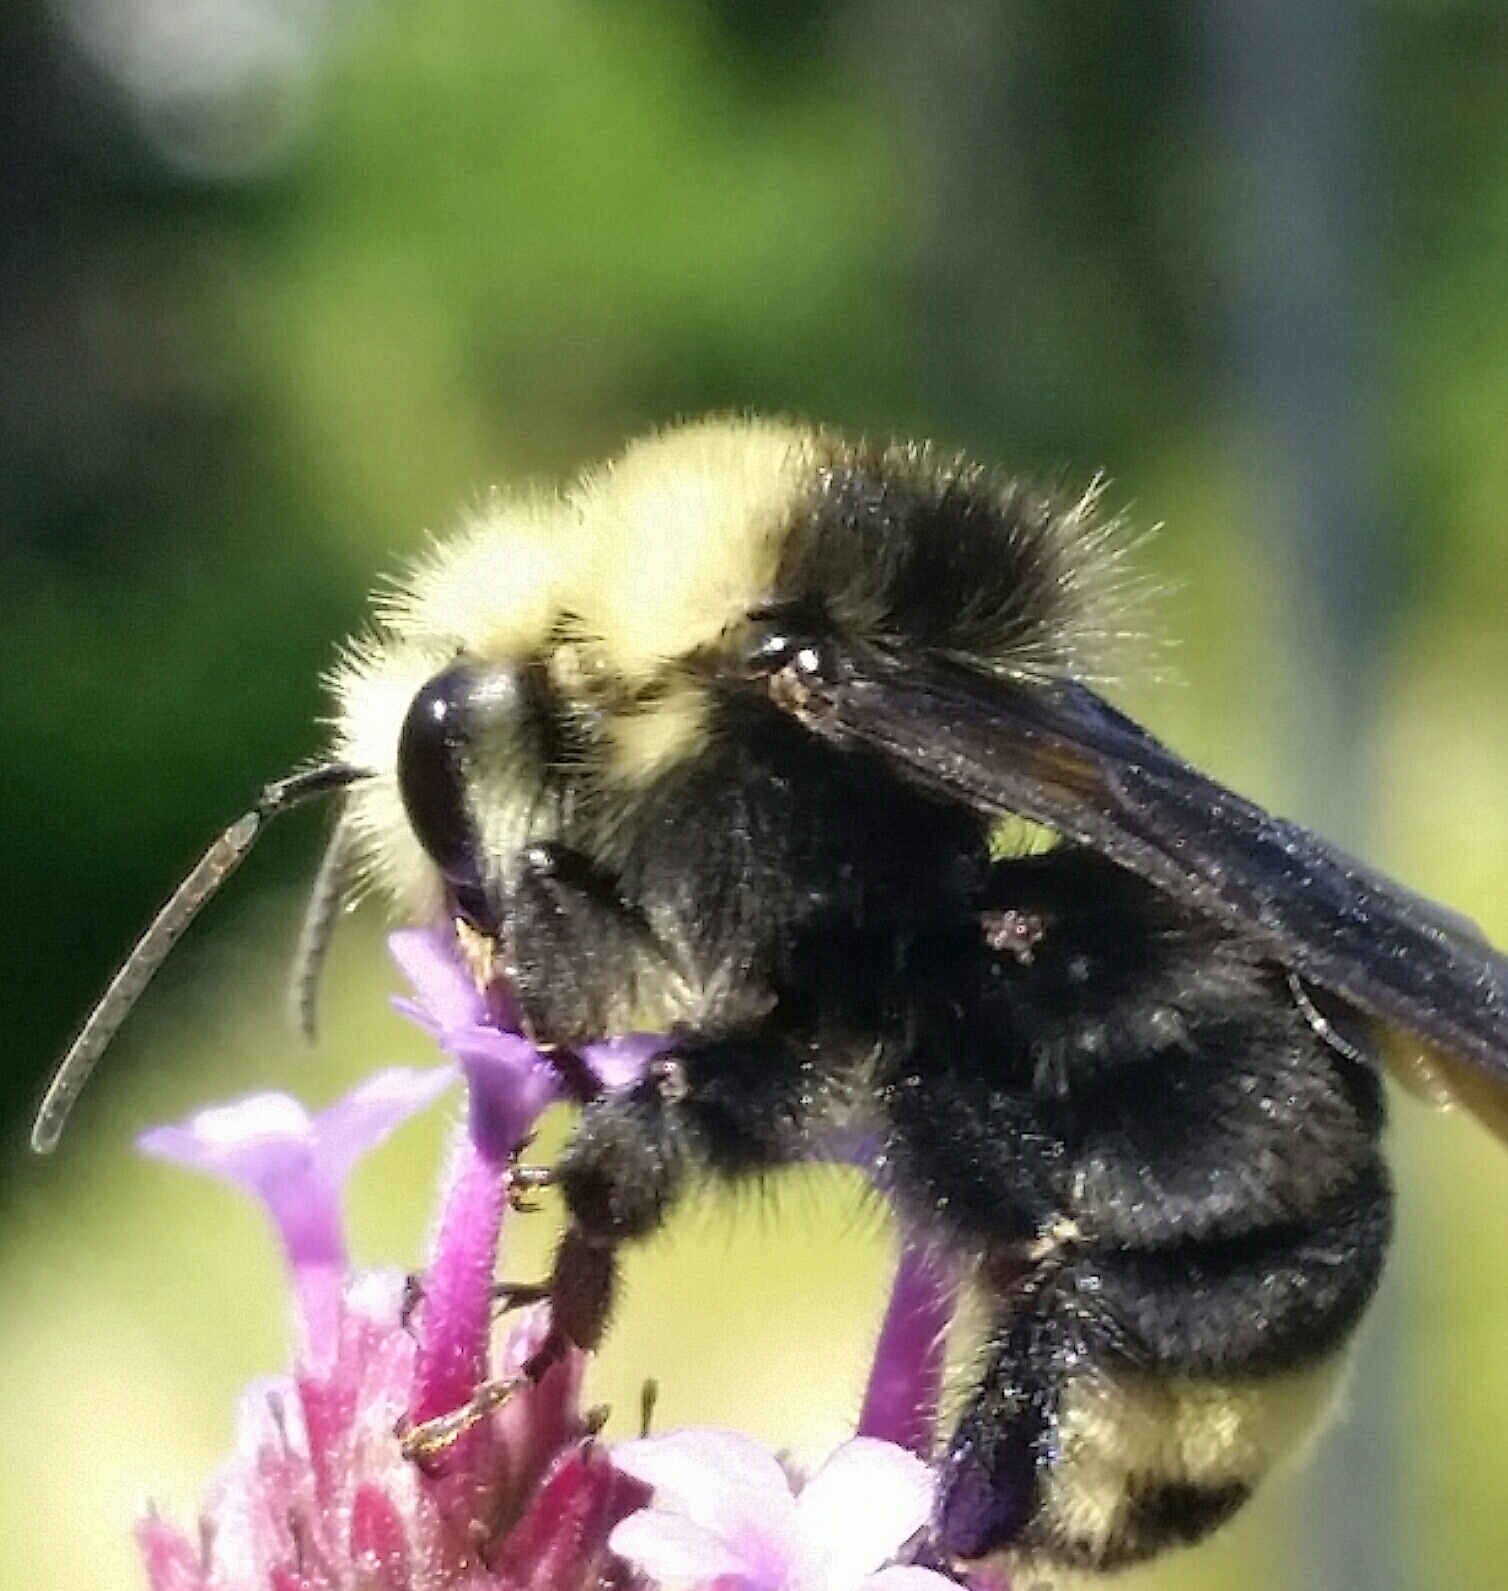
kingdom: Animalia
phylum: Arthropoda
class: Insecta
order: Hymenoptera
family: Apidae
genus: Bombus
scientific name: Bombus vosnesenskii
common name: Vosnesensky bumble bee
